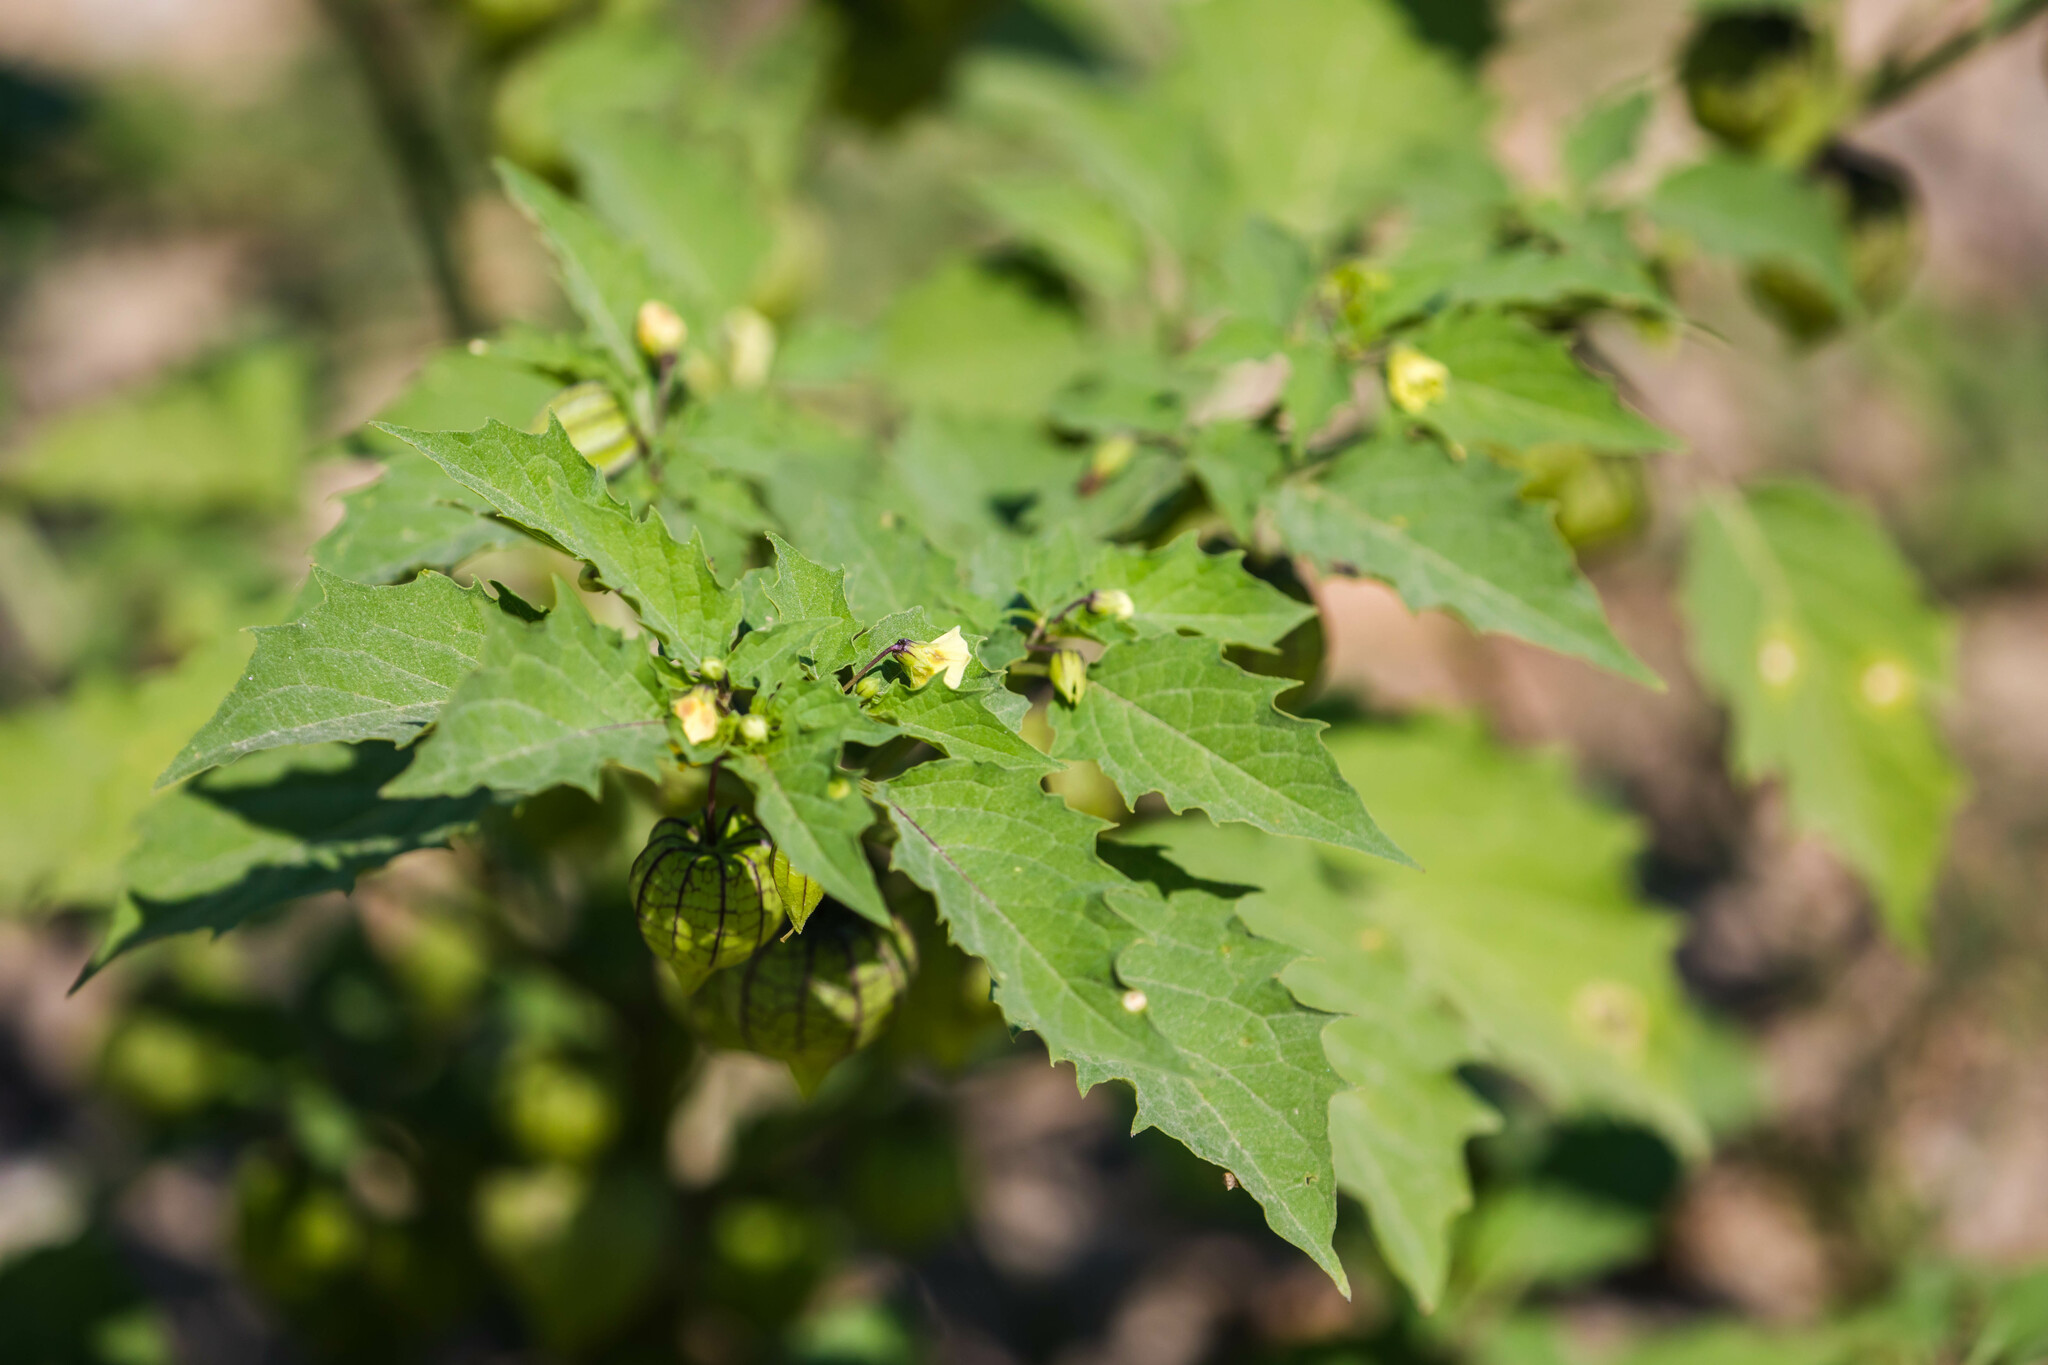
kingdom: Plantae
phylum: Tracheophyta
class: Magnoliopsida
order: Solanales
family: Solanaceae
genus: Physalis
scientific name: Physalis angulata
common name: Angular winter-cherry
